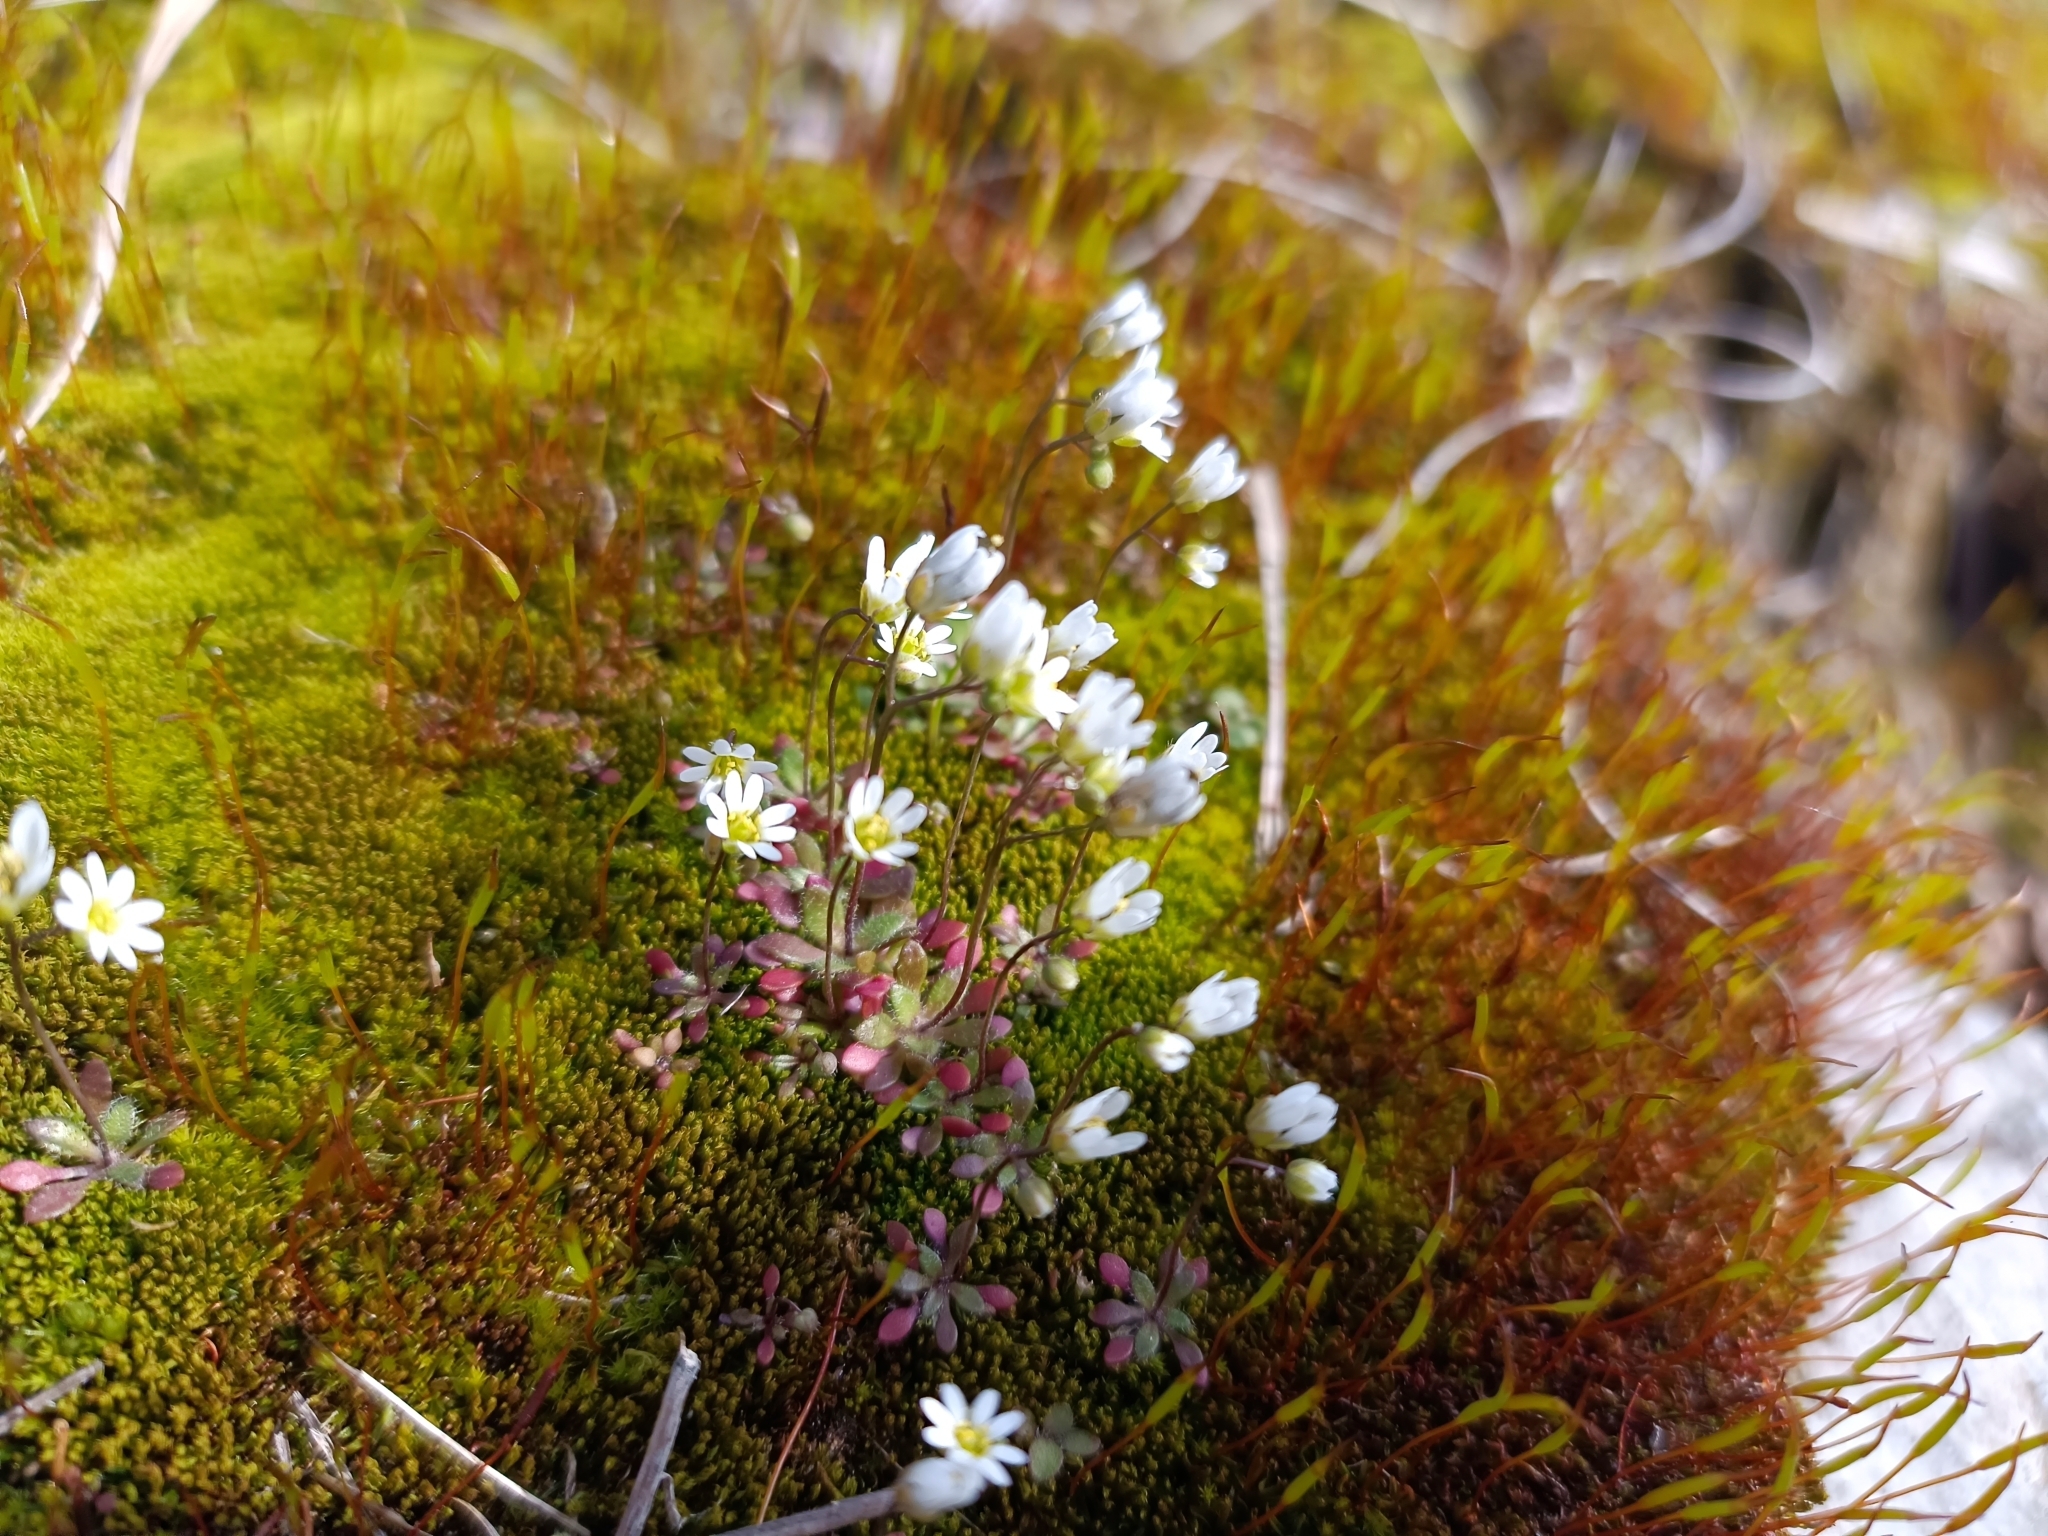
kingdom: Plantae
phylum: Tracheophyta
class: Magnoliopsida
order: Brassicales
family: Brassicaceae
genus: Draba
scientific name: Draba verna
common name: Spring draba
